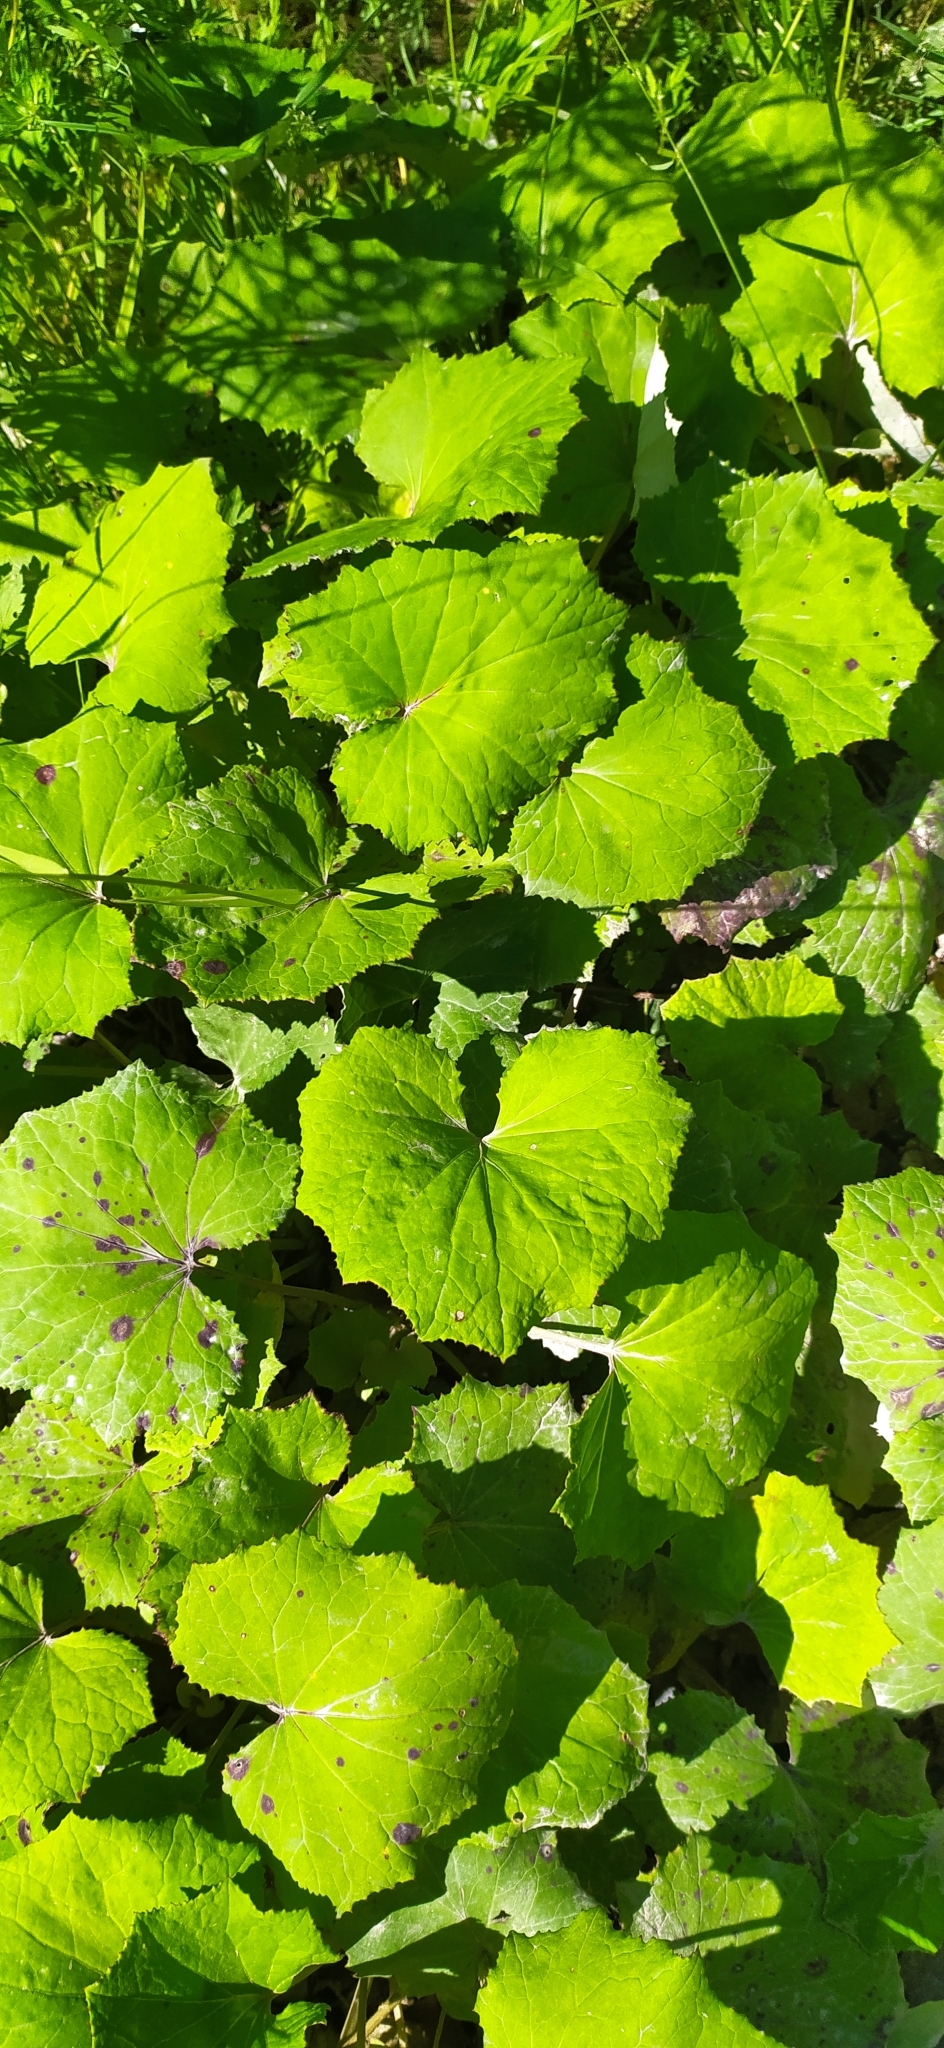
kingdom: Plantae
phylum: Tracheophyta
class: Magnoliopsida
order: Asterales
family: Asteraceae
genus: Tussilago
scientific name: Tussilago farfara
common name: Coltsfoot
